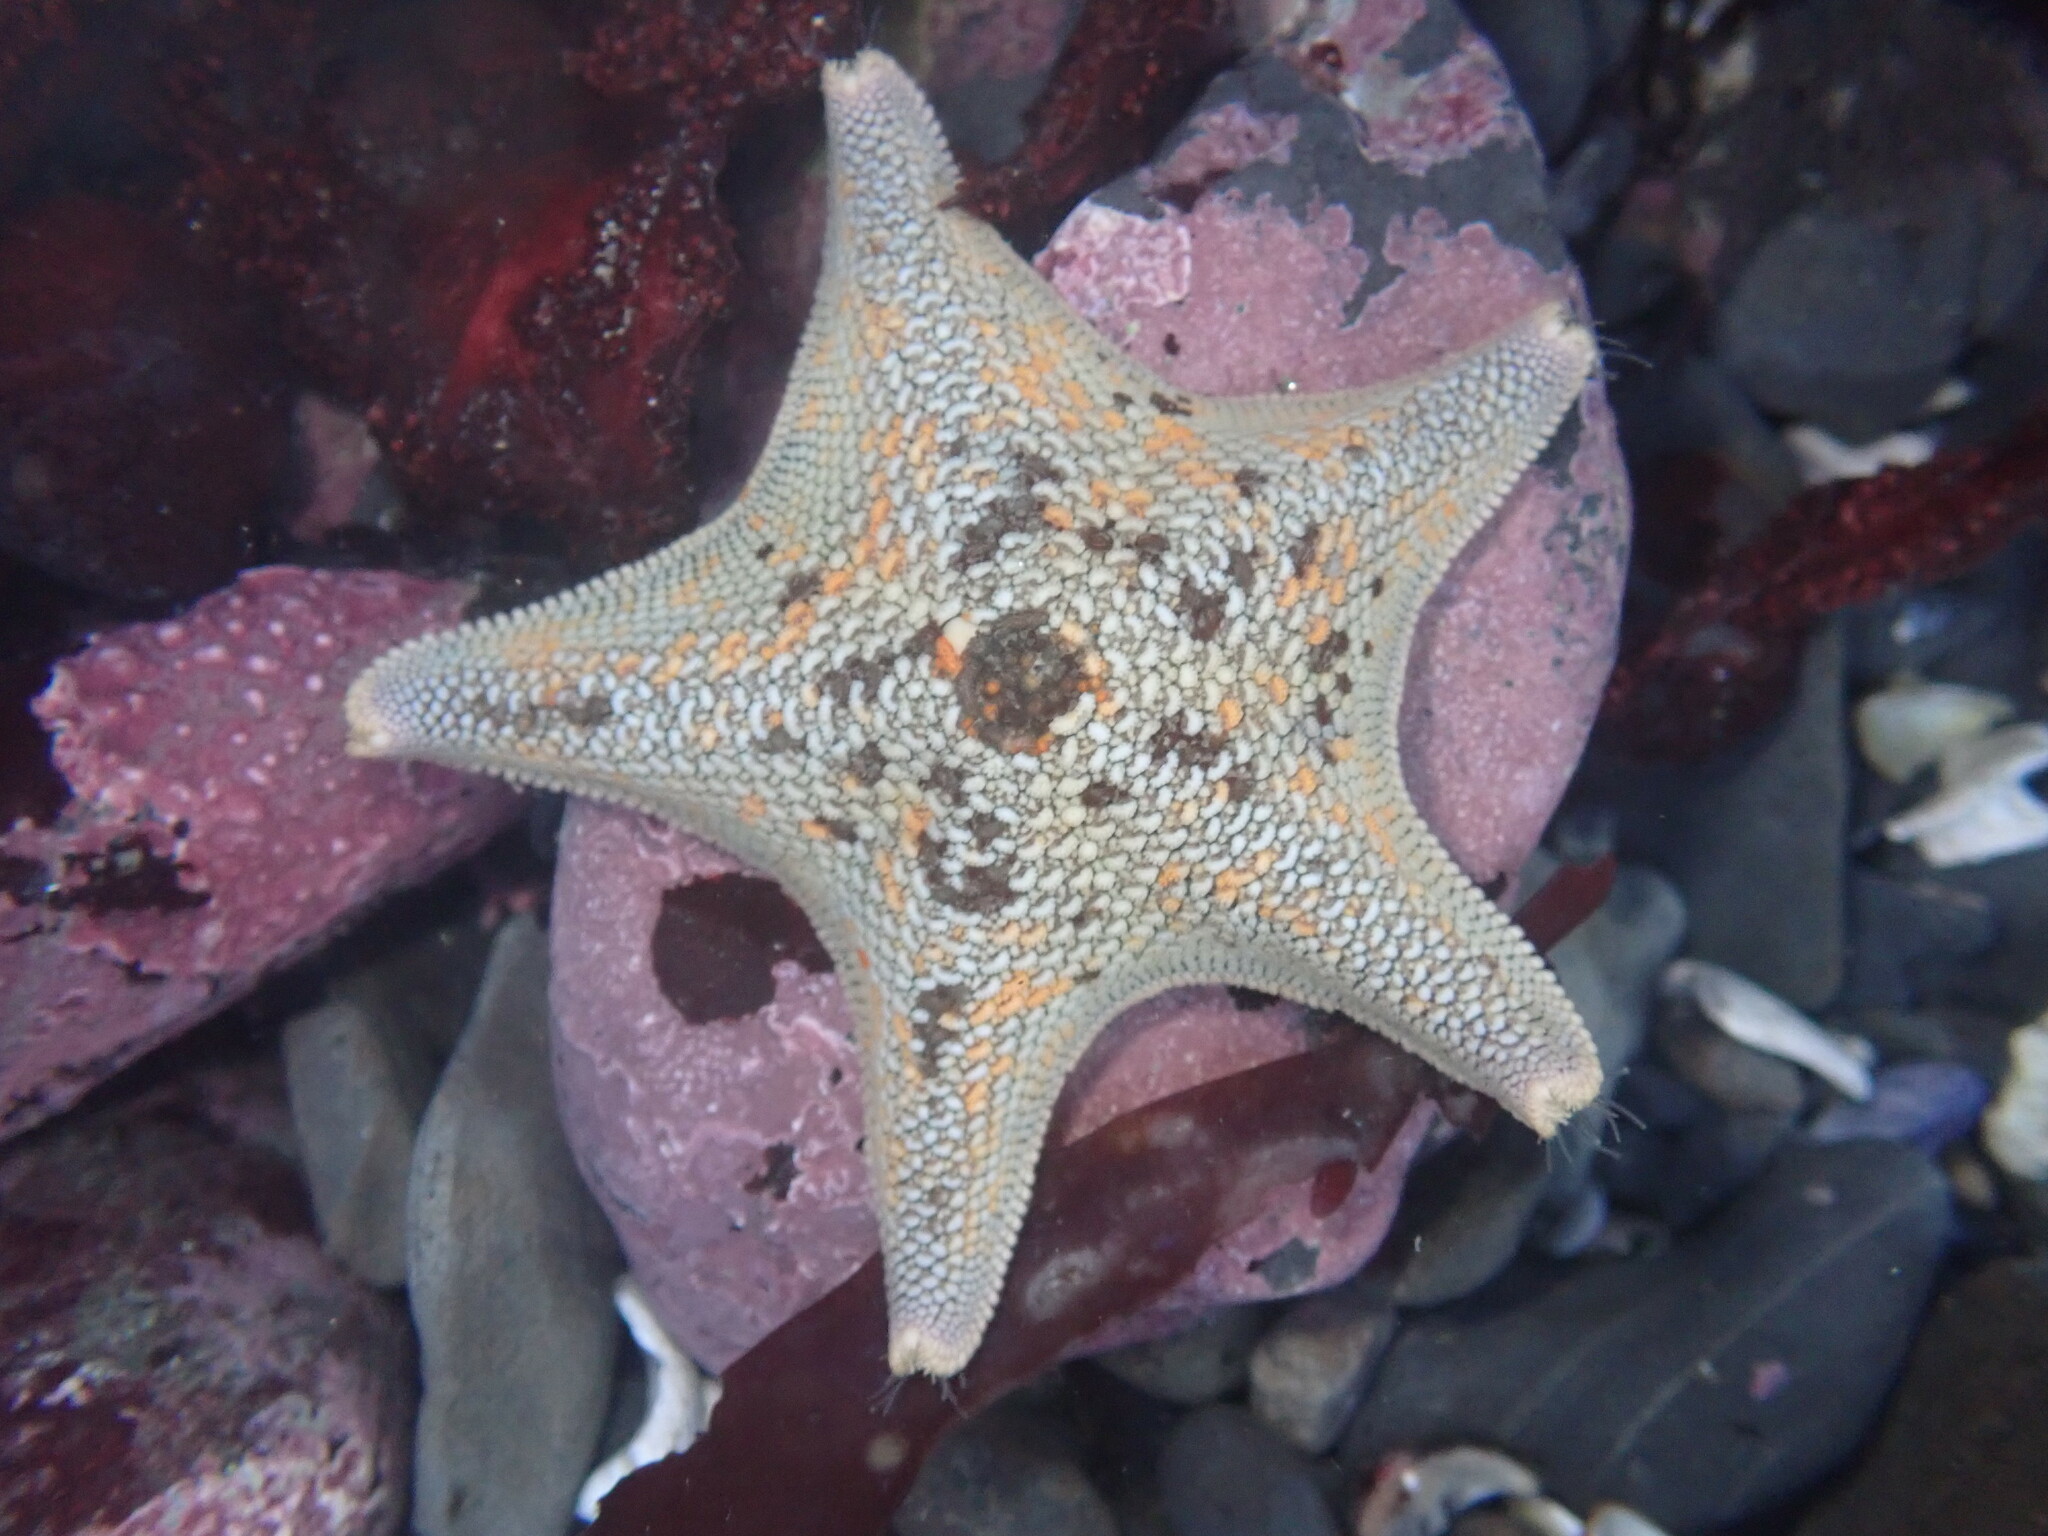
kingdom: Animalia
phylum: Echinodermata
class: Asteroidea
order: Valvatida
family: Asterinidae
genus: Patiria
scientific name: Patiria miniata
